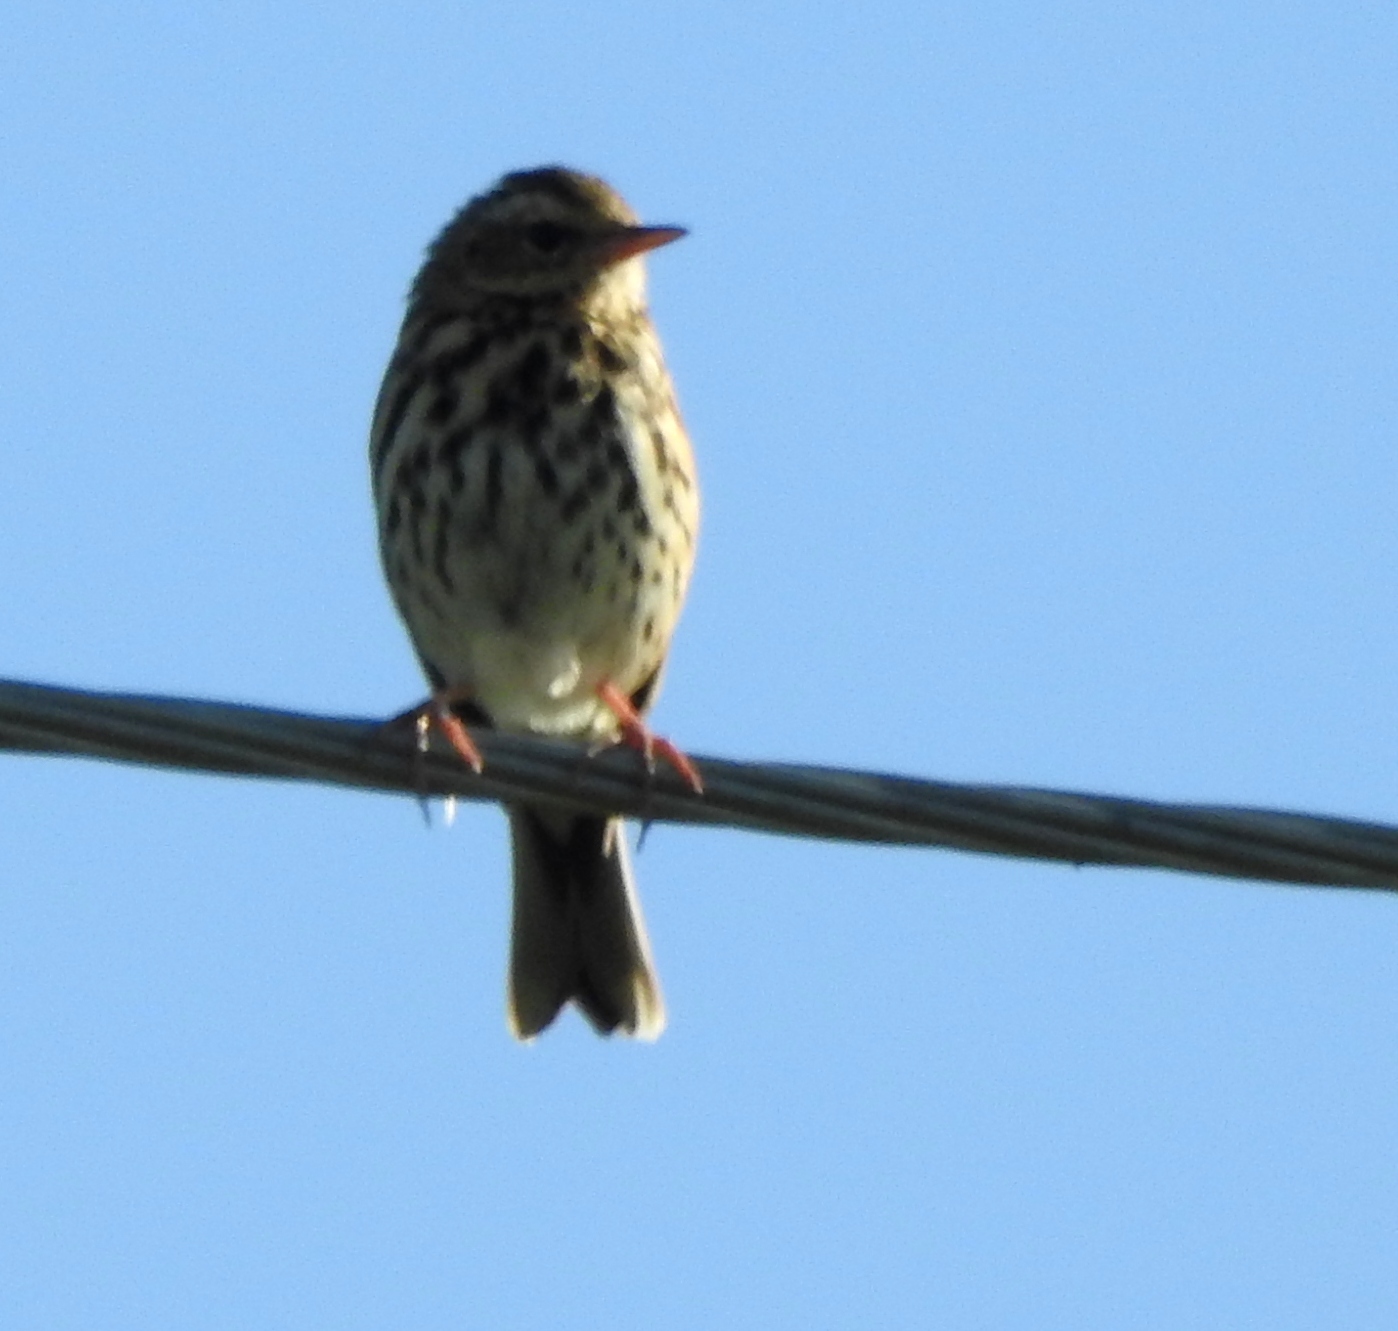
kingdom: Animalia
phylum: Chordata
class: Aves
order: Passeriformes
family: Motacillidae
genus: Anthus
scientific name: Anthus hodgsoni
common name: Olive-backed pipit
